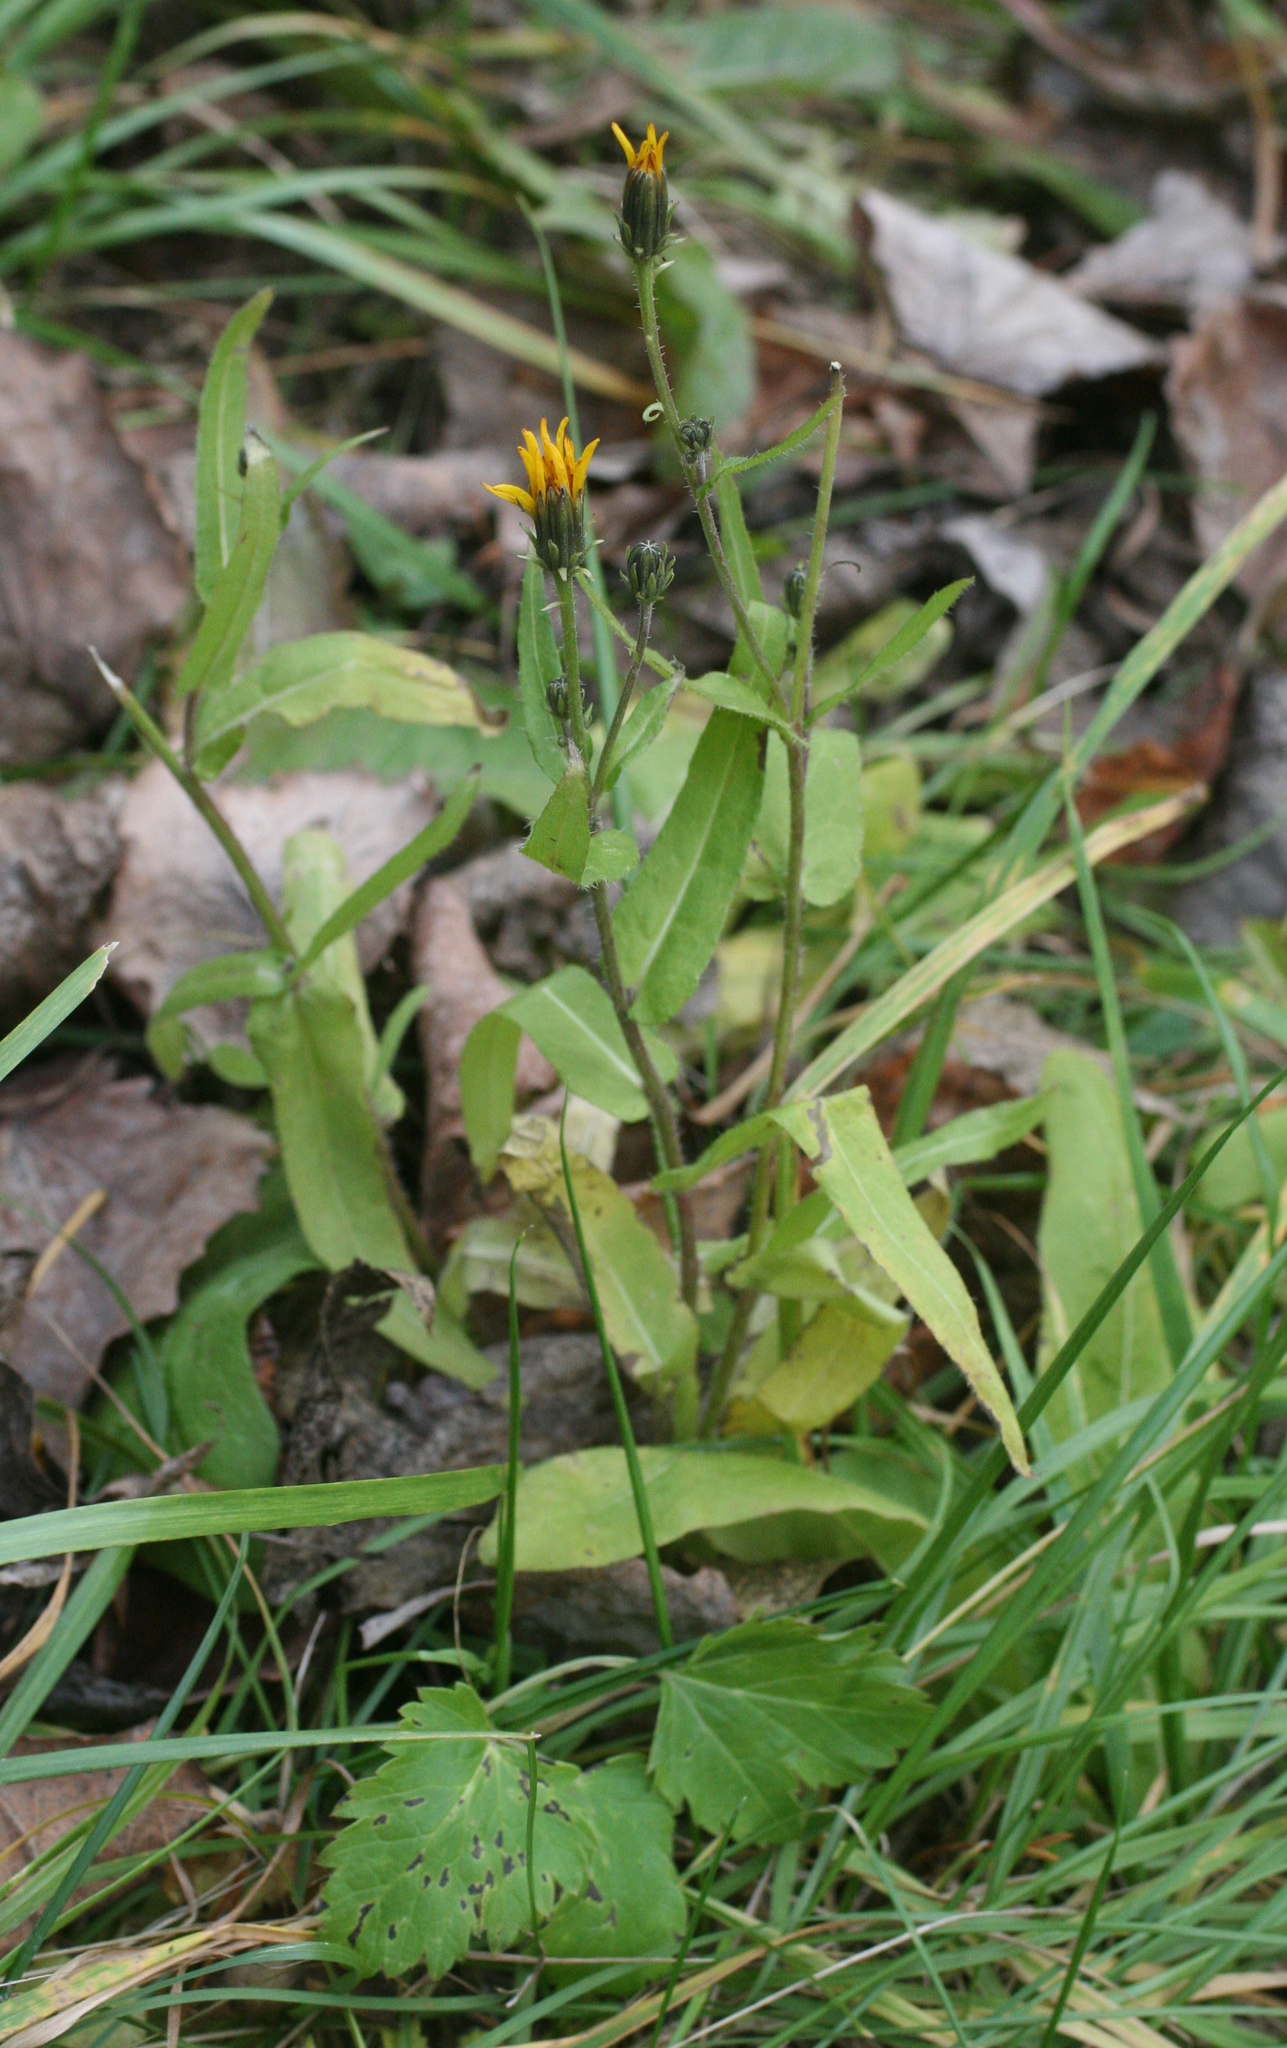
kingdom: Plantae
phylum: Tracheophyta
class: Magnoliopsida
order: Asterales
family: Asteraceae
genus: Picris
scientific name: Picris hieracioides
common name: Hawkweed oxtongue
